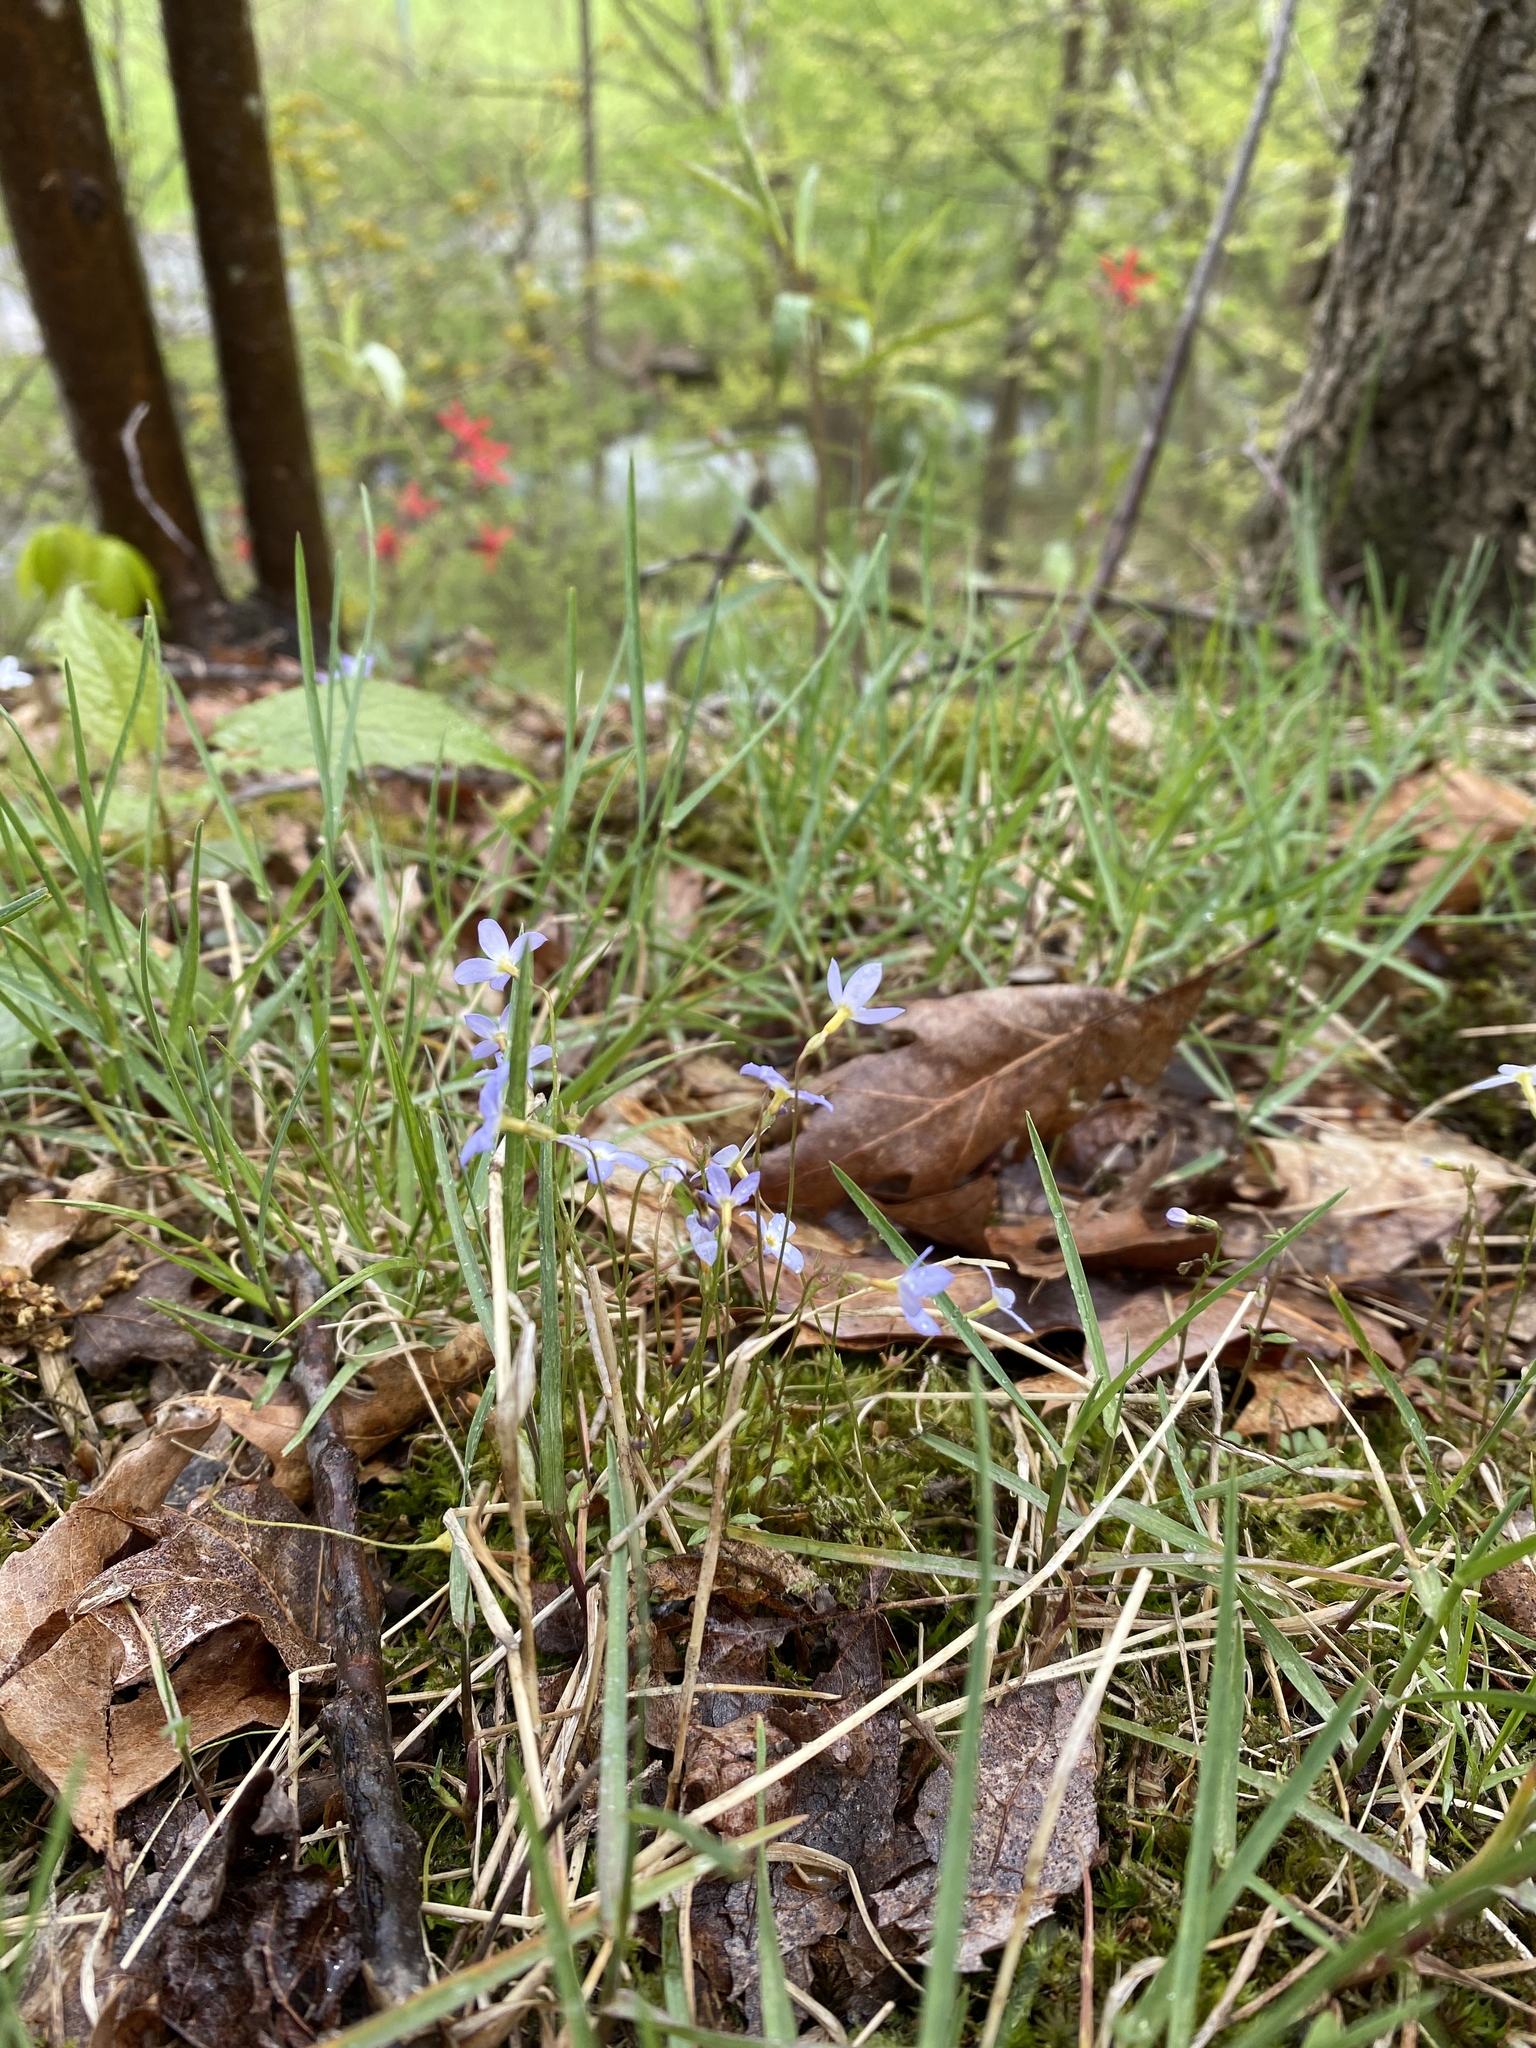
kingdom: Plantae
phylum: Tracheophyta
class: Magnoliopsida
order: Gentianales
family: Rubiaceae
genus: Houstonia
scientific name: Houstonia caerulea
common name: Bluets
